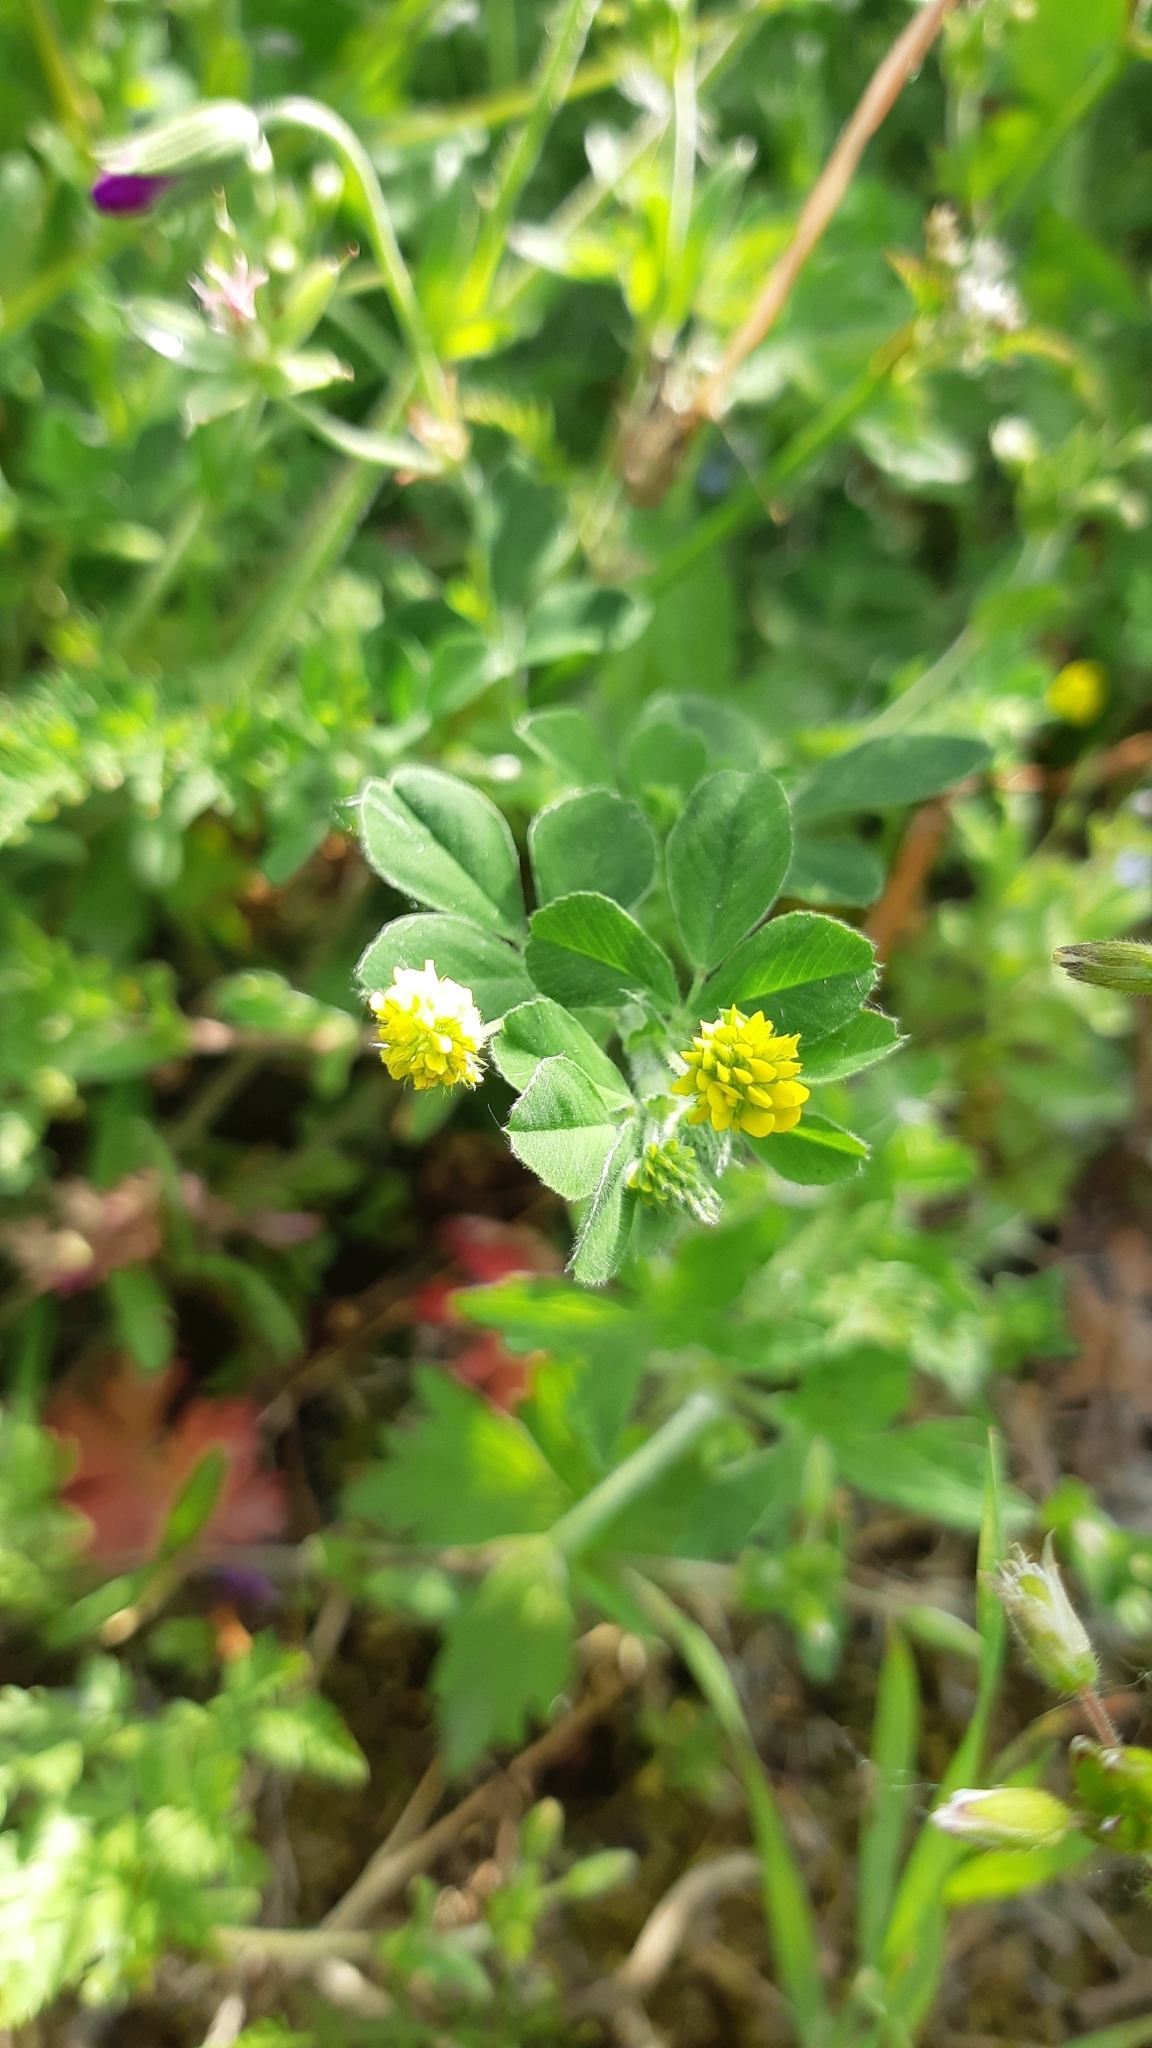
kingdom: Plantae
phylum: Tracheophyta
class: Magnoliopsida
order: Fabales
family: Fabaceae
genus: Medicago
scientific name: Medicago lupulina
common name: Black medick
